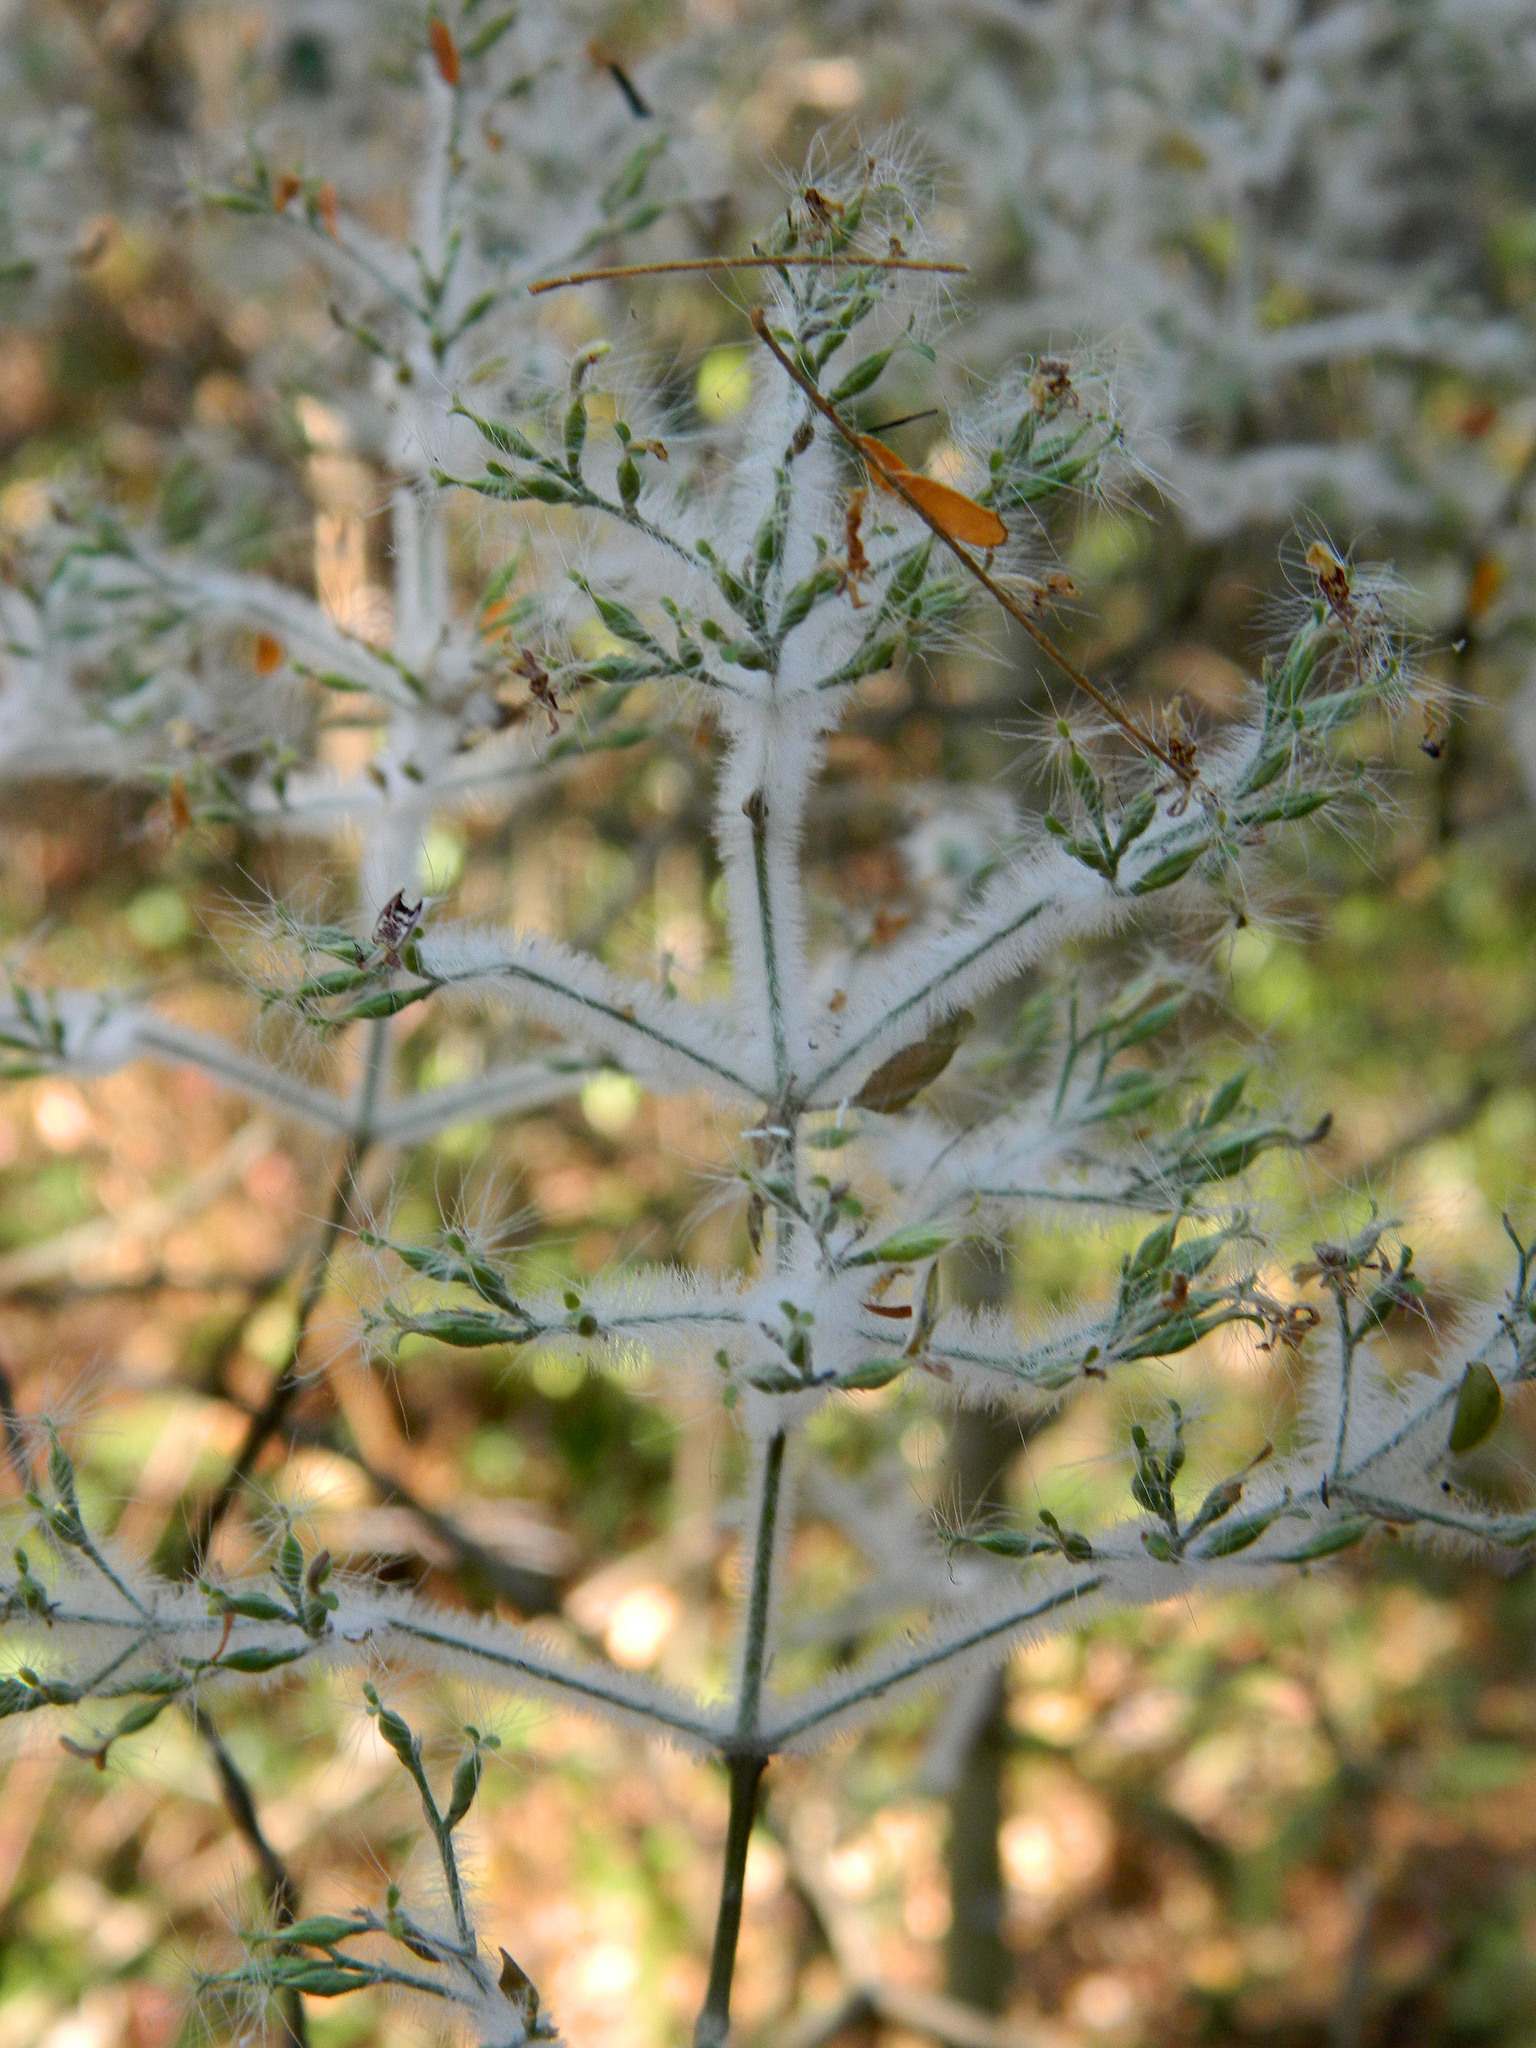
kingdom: Plantae
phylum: Tracheophyta
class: Magnoliopsida
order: Lamiales
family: Acanthaceae
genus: Hypoestes
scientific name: Hypoestes lasioclada
